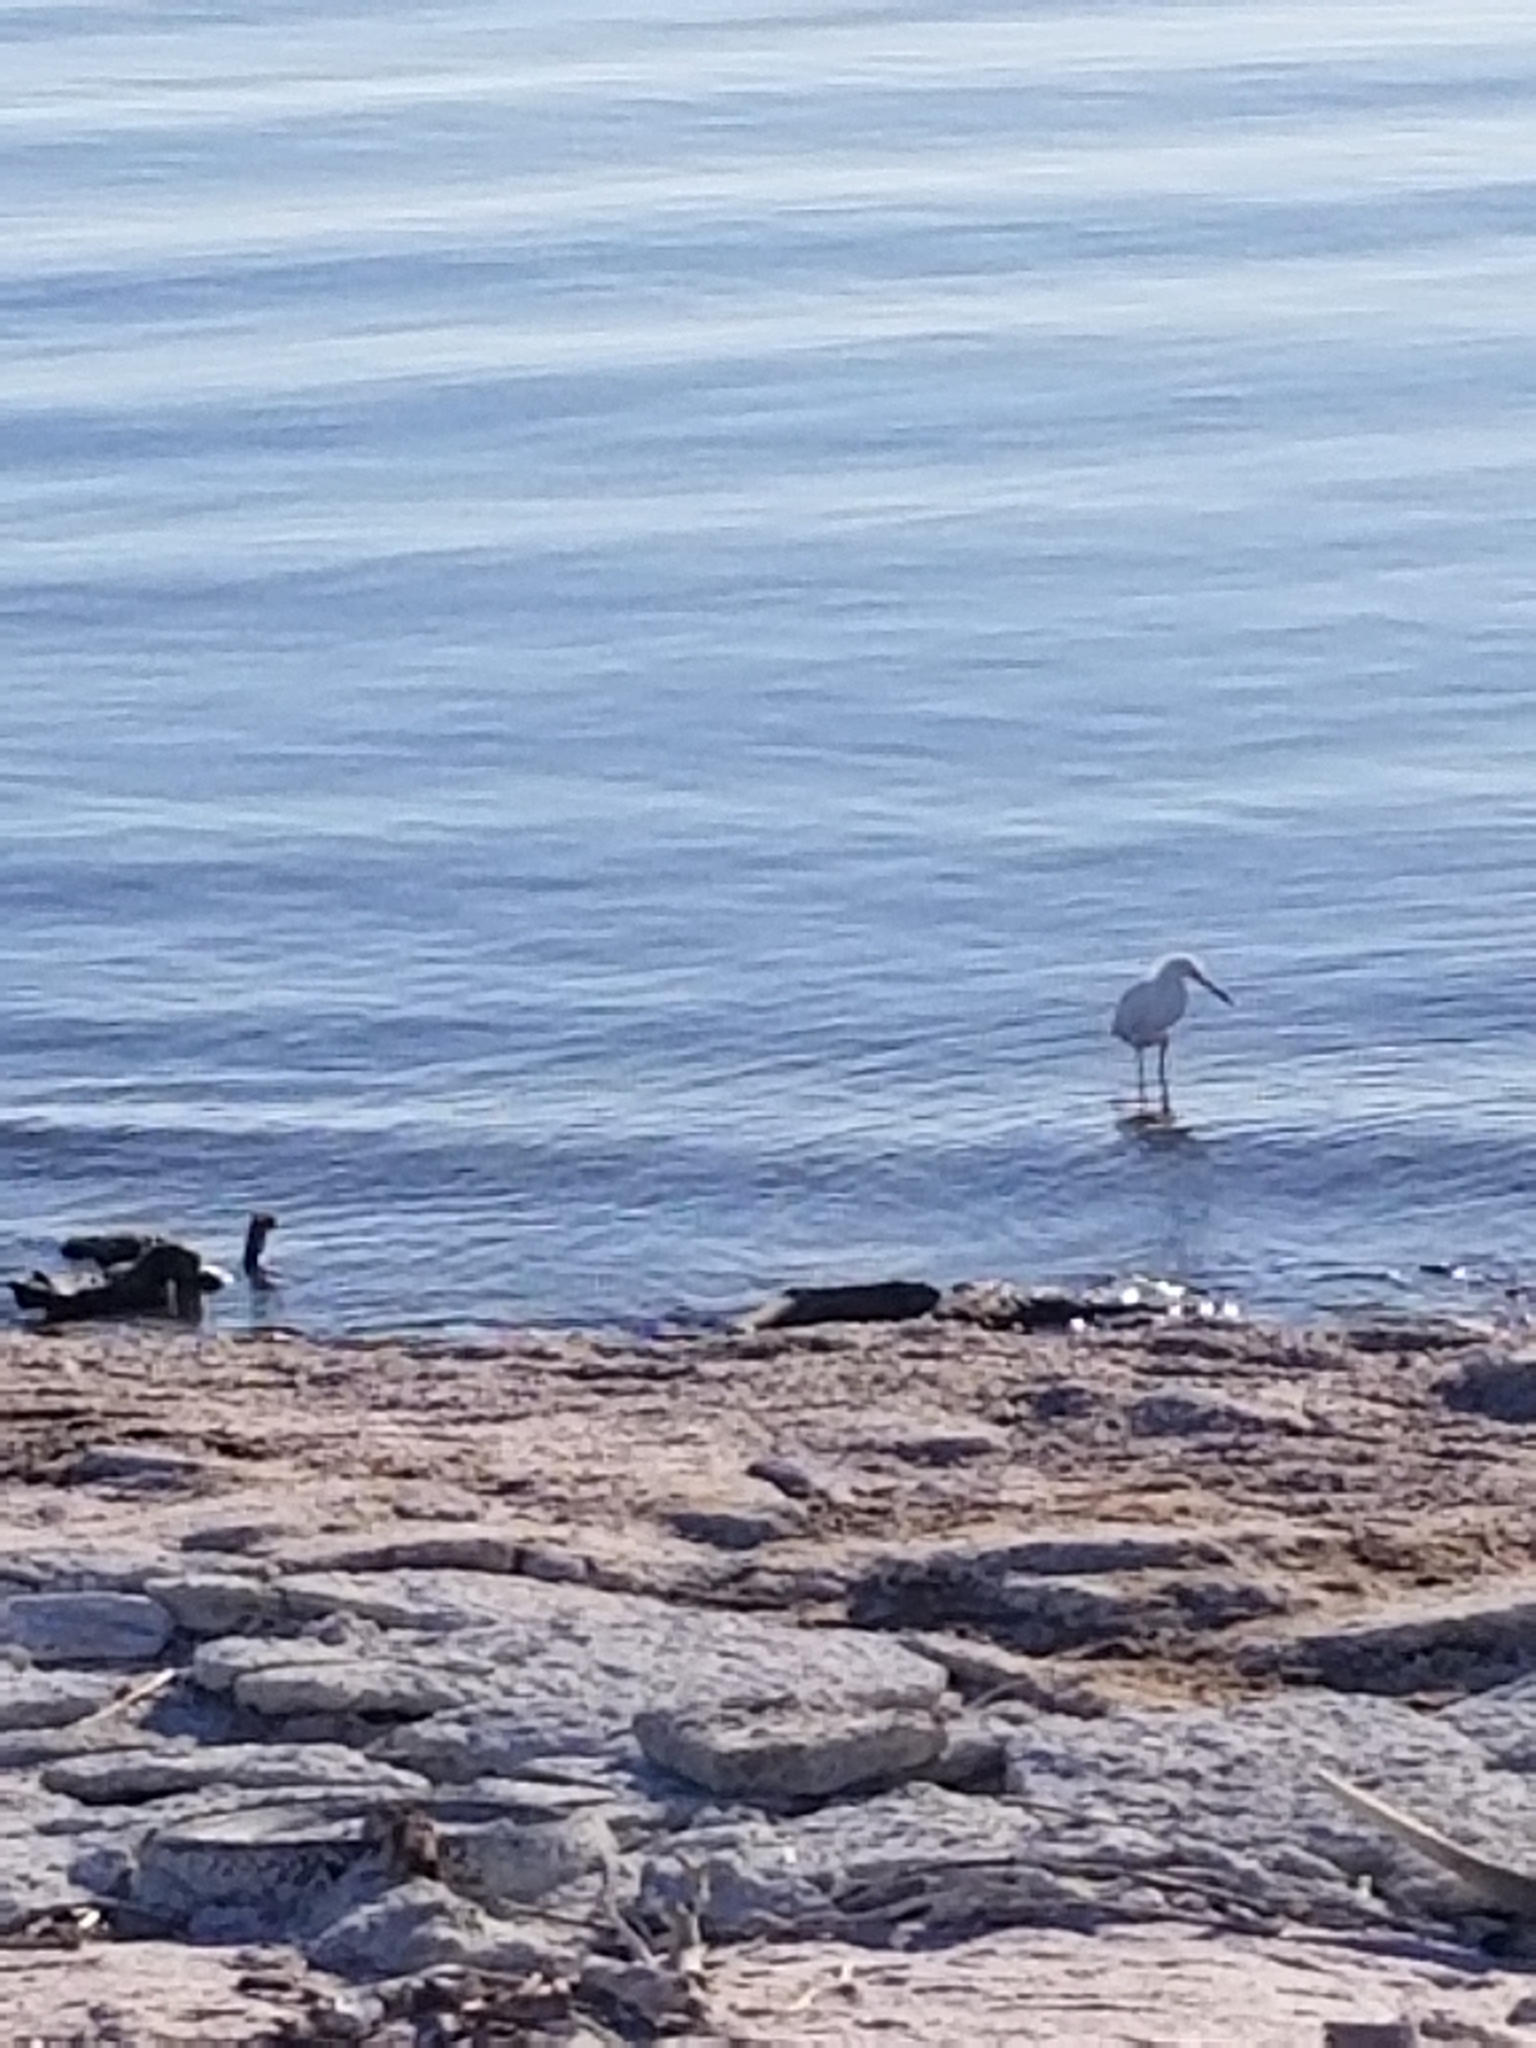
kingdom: Animalia
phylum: Chordata
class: Aves
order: Pelecaniformes
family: Ardeidae
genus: Egretta
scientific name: Egretta thula
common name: Snowy egret
